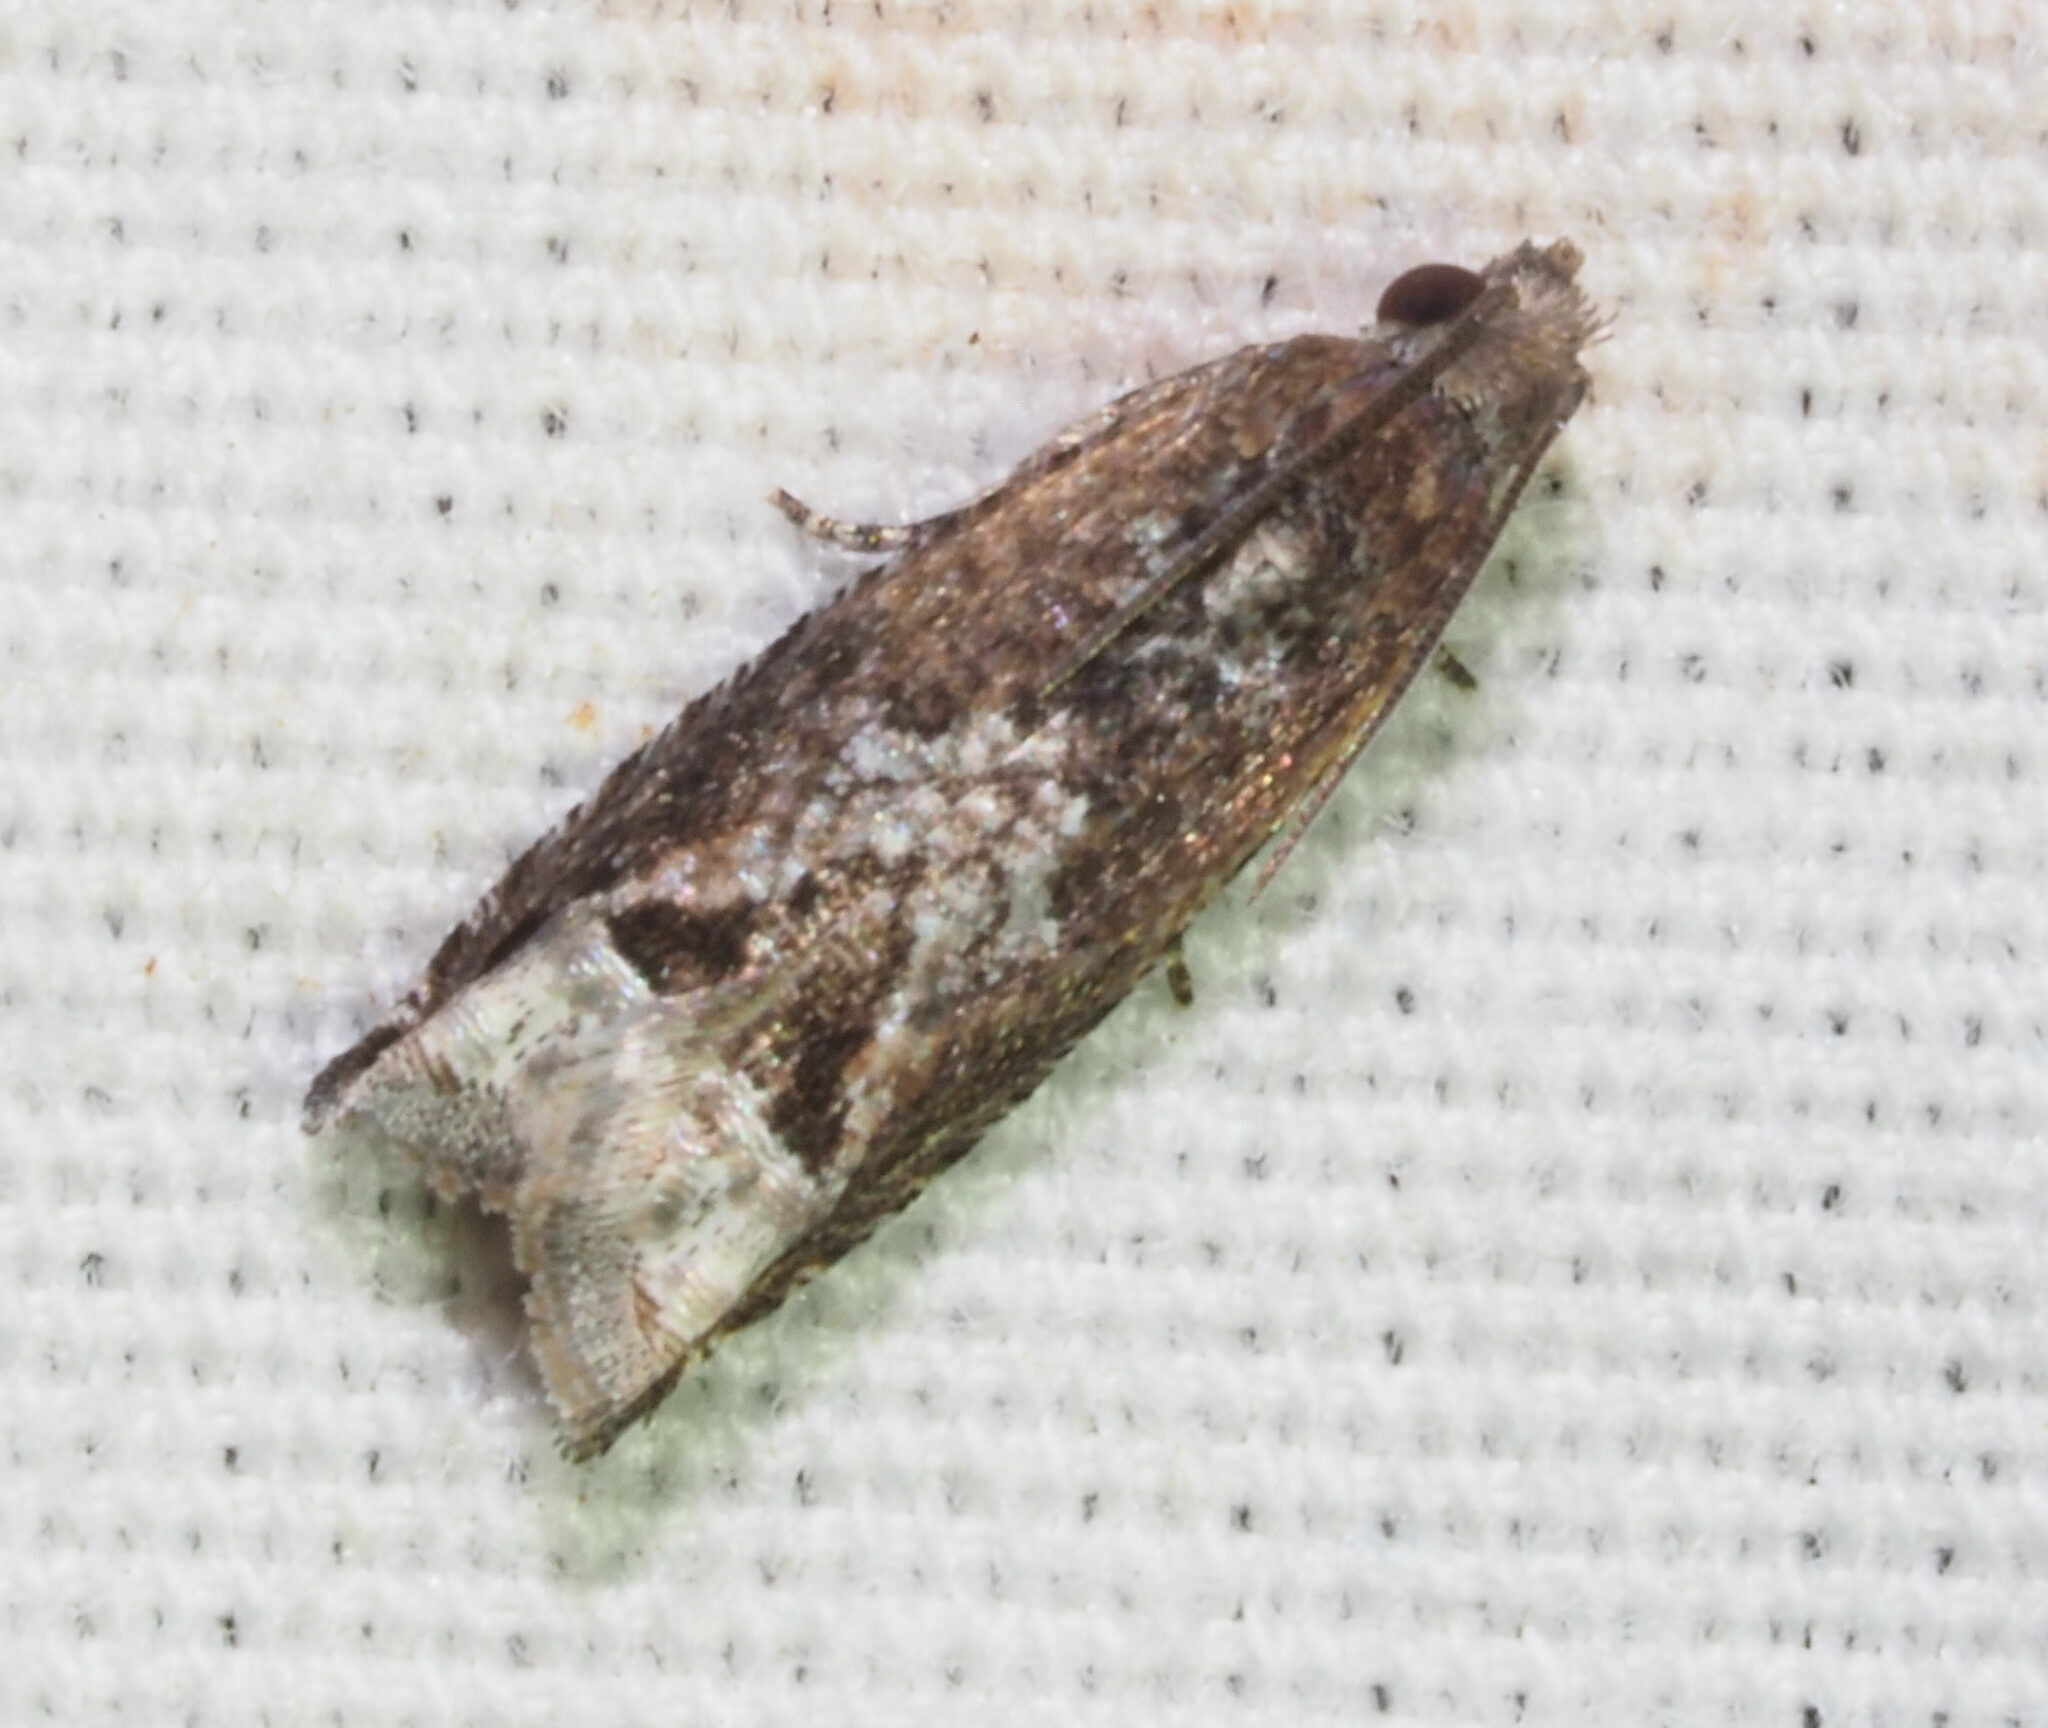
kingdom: Animalia
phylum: Arthropoda
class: Insecta
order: Lepidoptera
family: Tortricidae
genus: Crocidosema
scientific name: Crocidosema lantana
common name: Lantana flower-cluster moth
